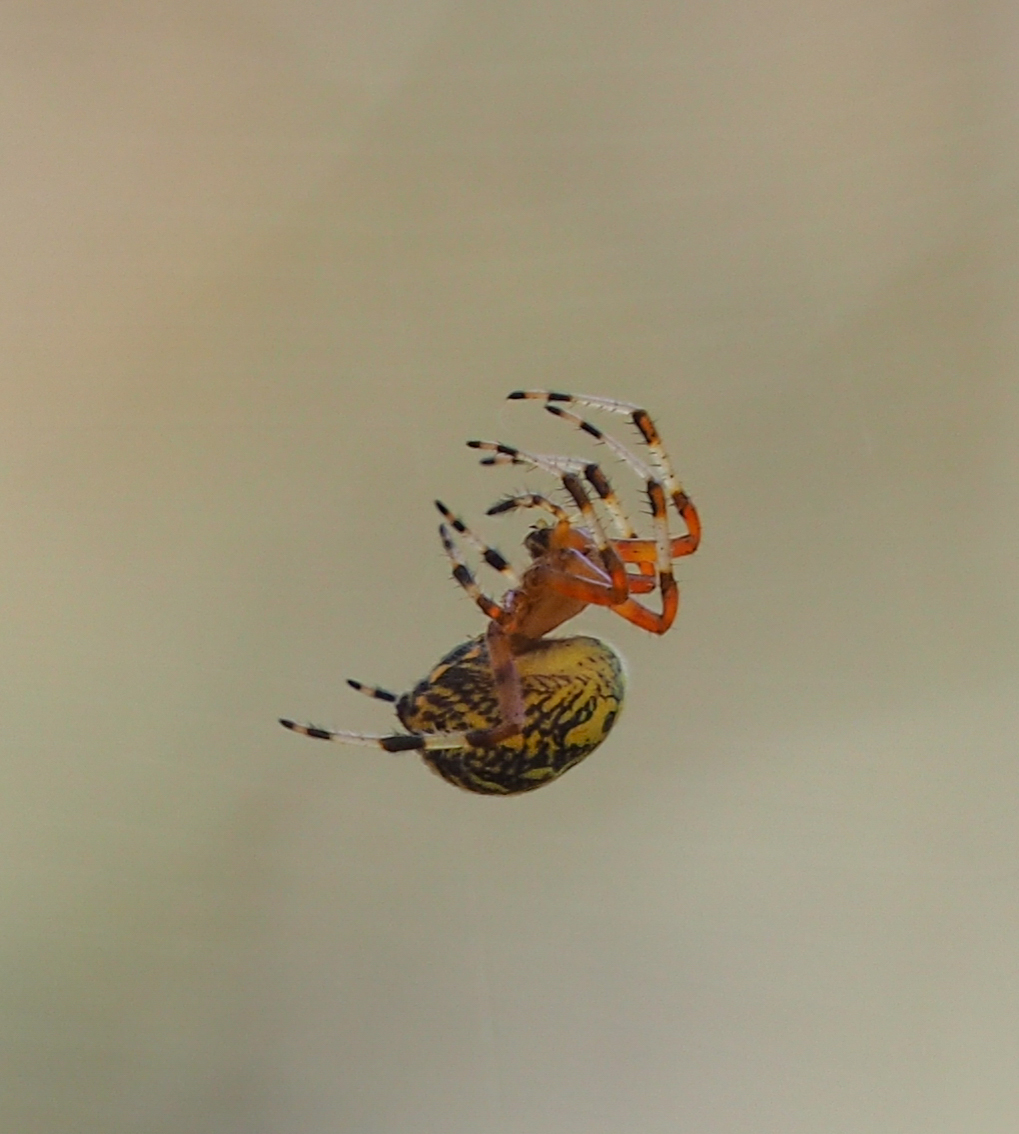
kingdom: Animalia
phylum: Arthropoda
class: Arachnida
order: Araneae
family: Araneidae
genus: Araneus
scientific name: Araneus marmoreus
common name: Marbled orbweaver
